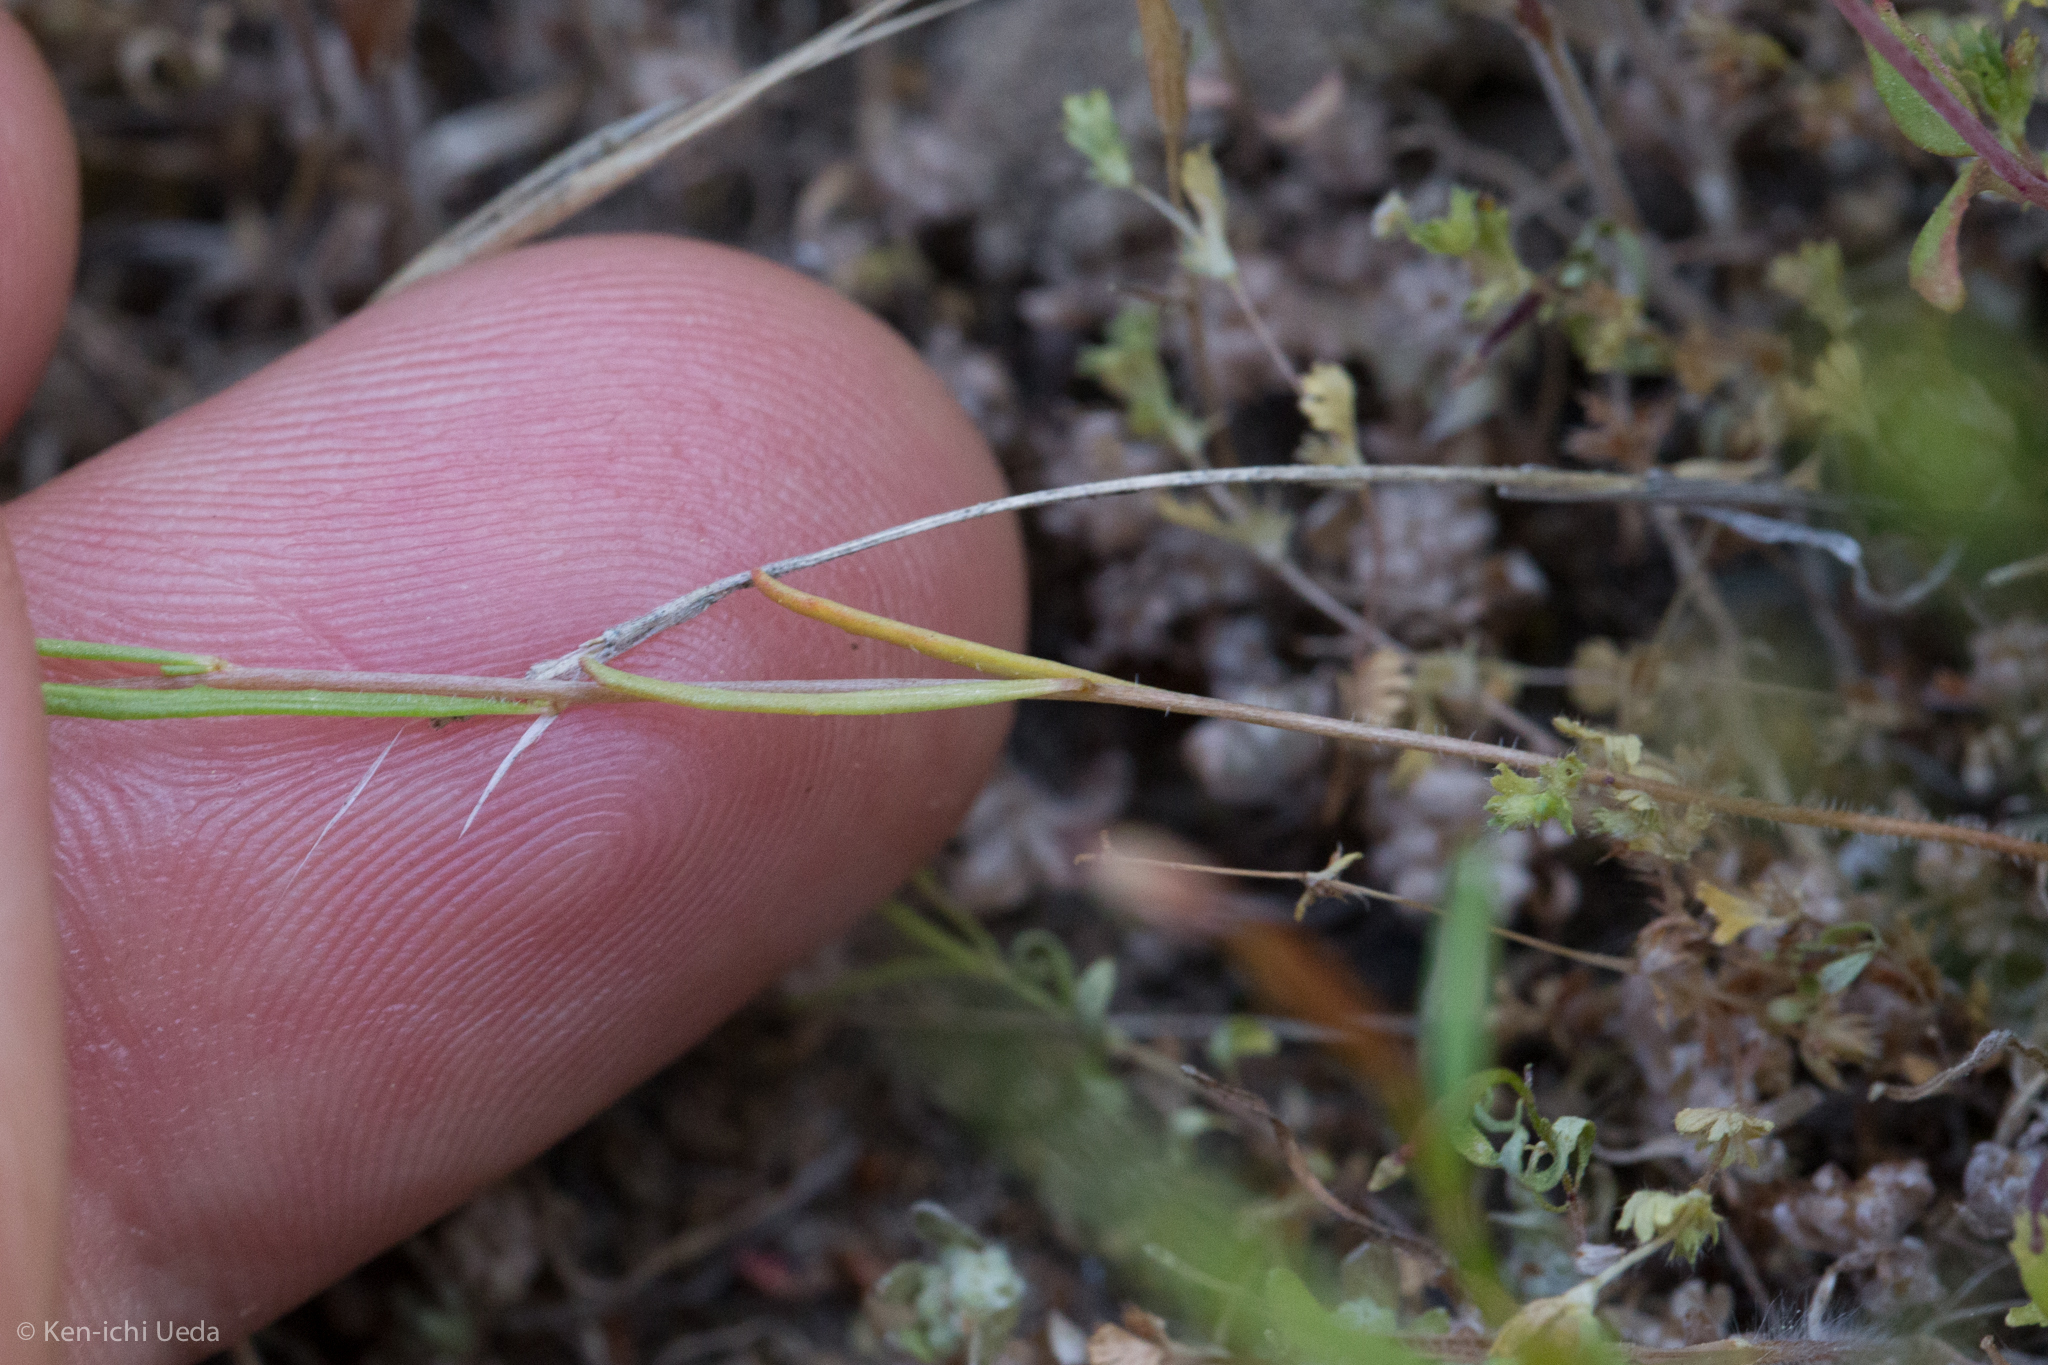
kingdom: Plantae
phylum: Tracheophyta
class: Magnoliopsida
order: Myrtales
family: Onagraceae
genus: Camissonia
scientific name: Camissonia contorta
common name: Contorted suncup
